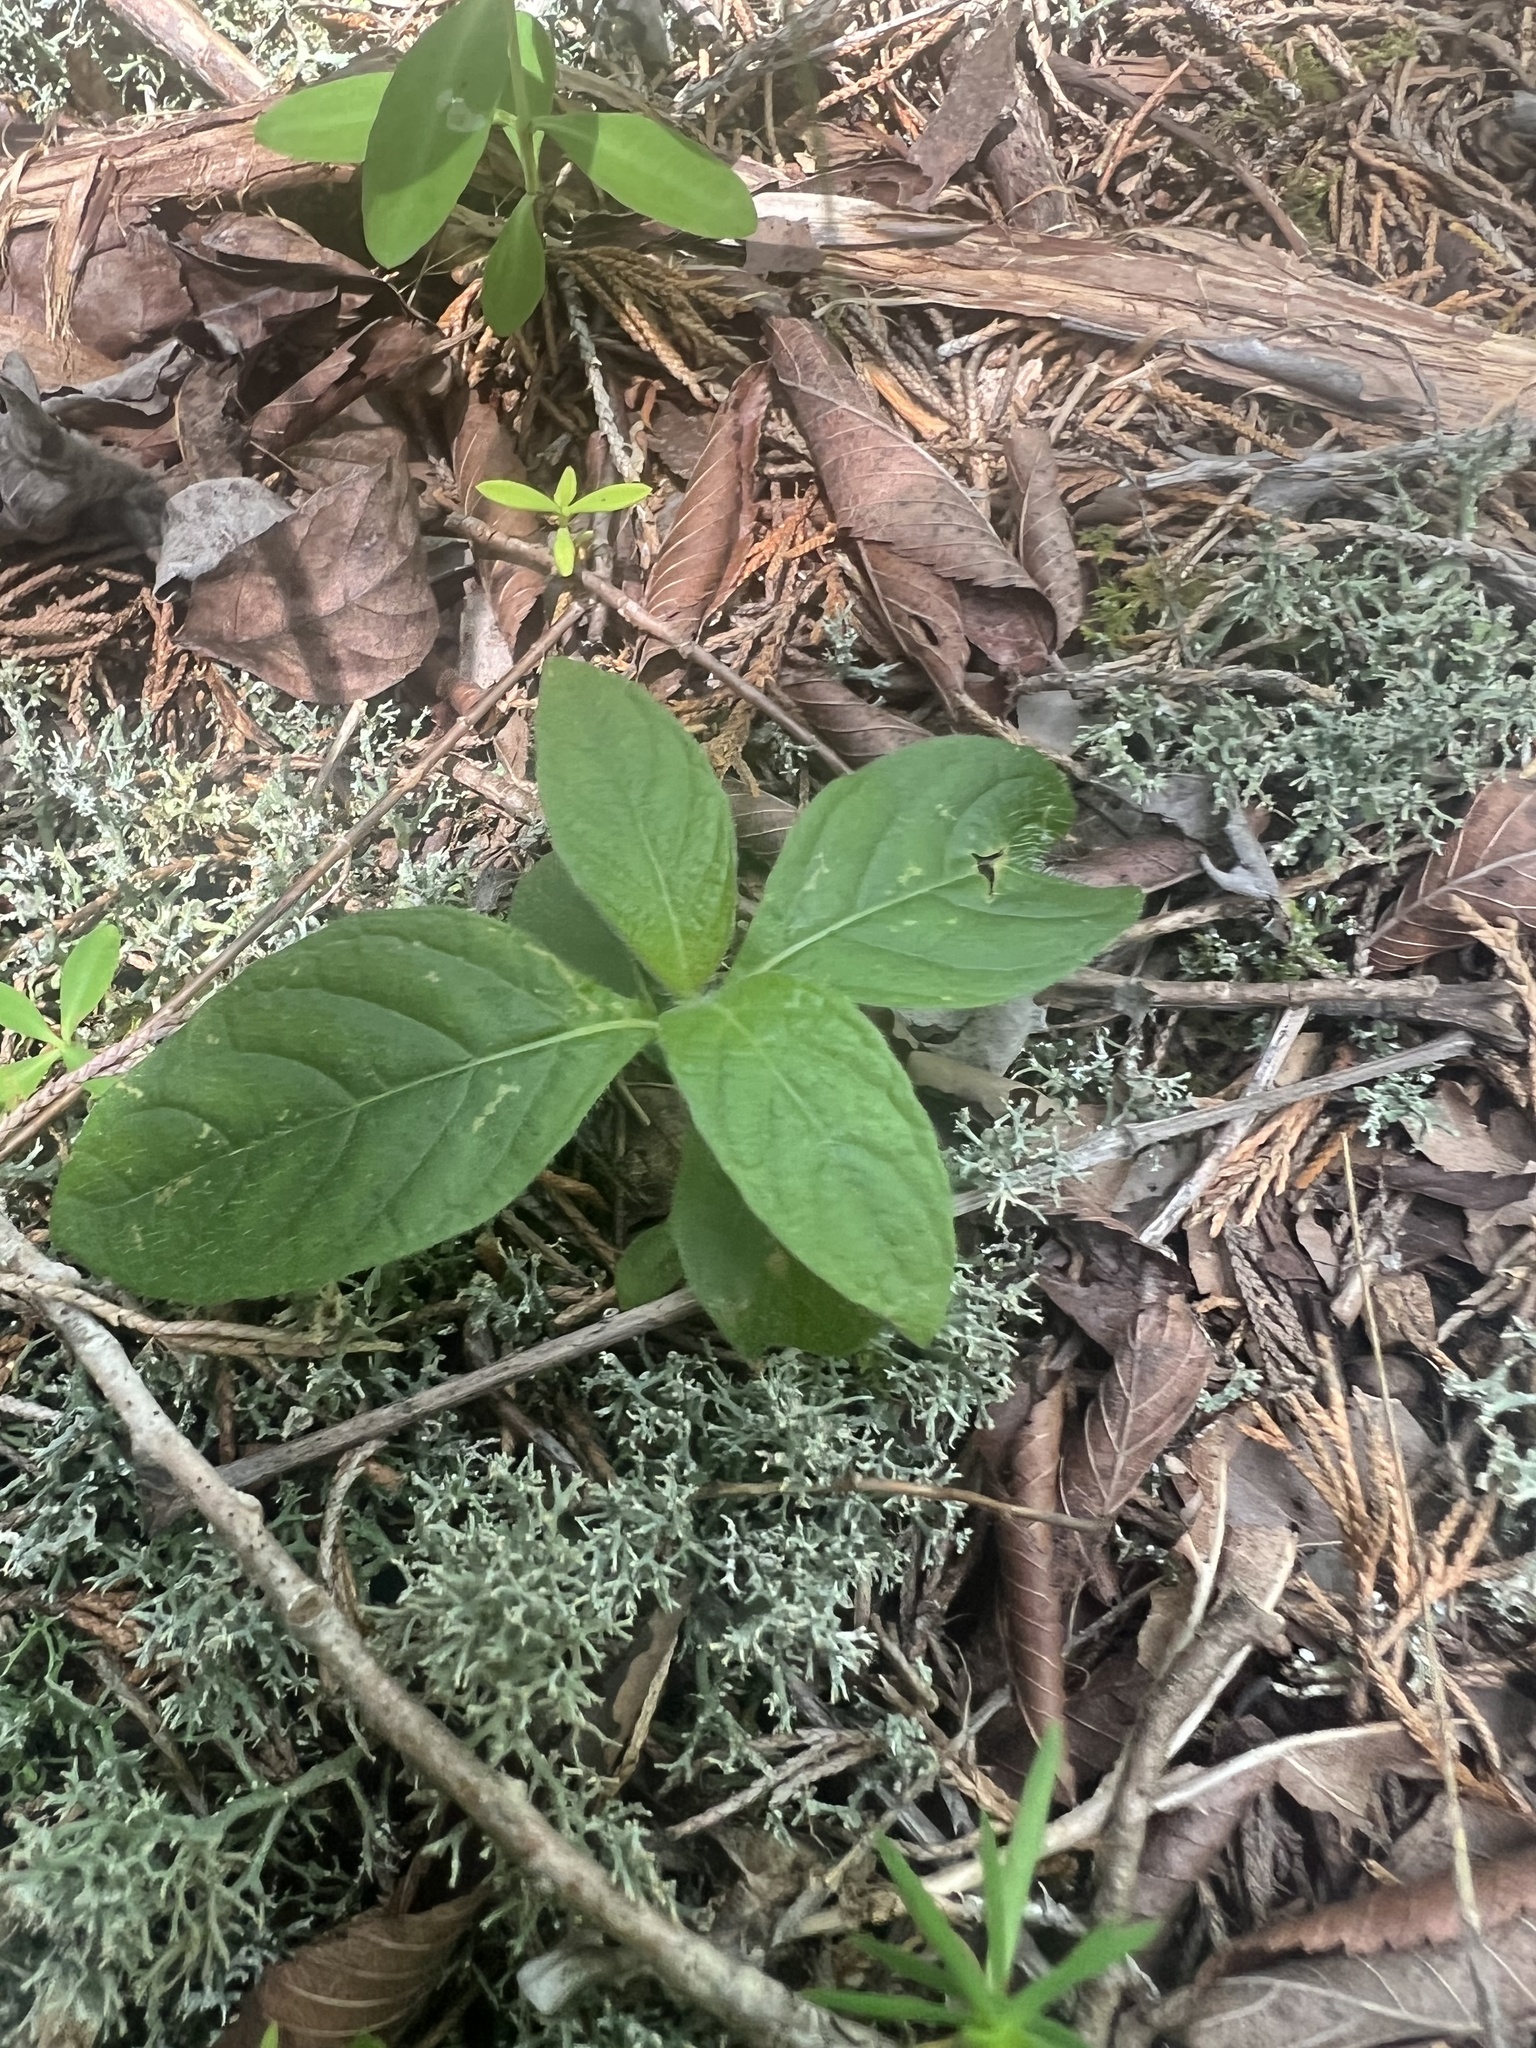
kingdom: Plantae
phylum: Tracheophyta
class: Magnoliopsida
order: Lamiales
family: Acanthaceae
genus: Ruellia
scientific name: Ruellia strepens
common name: Limestone wild petunia
